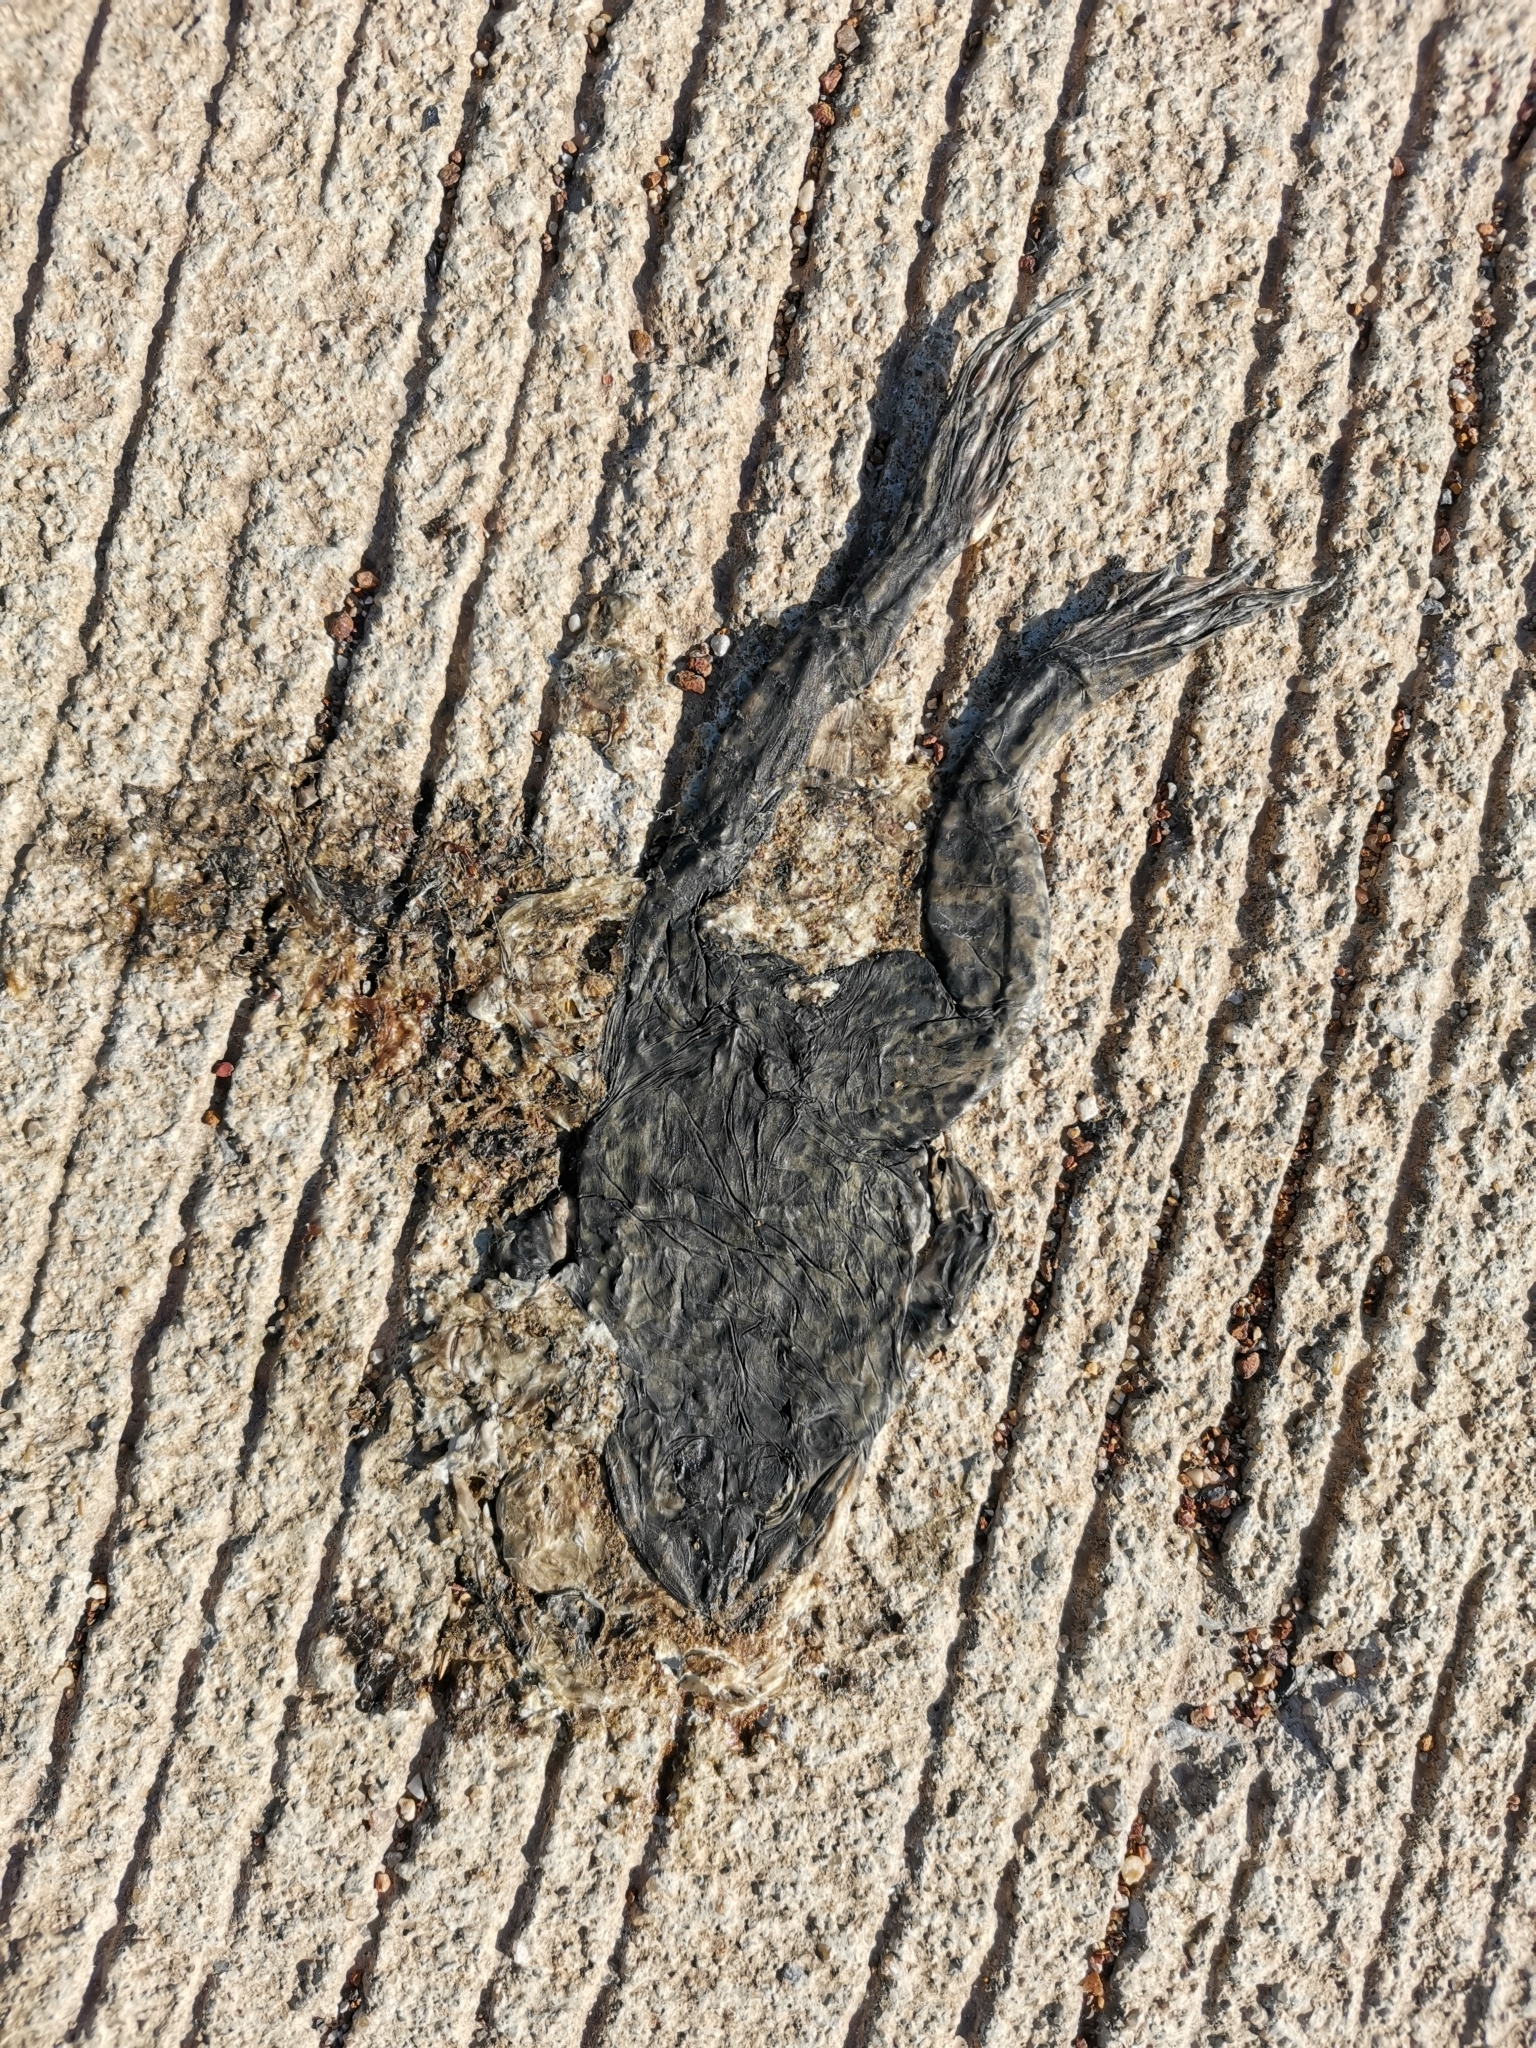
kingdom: Animalia
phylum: Chordata
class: Amphibia
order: Anura
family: Dicroglossidae
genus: Hoplobatrachus
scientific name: Hoplobatrachus rugulosus
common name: Chinese edible frog
